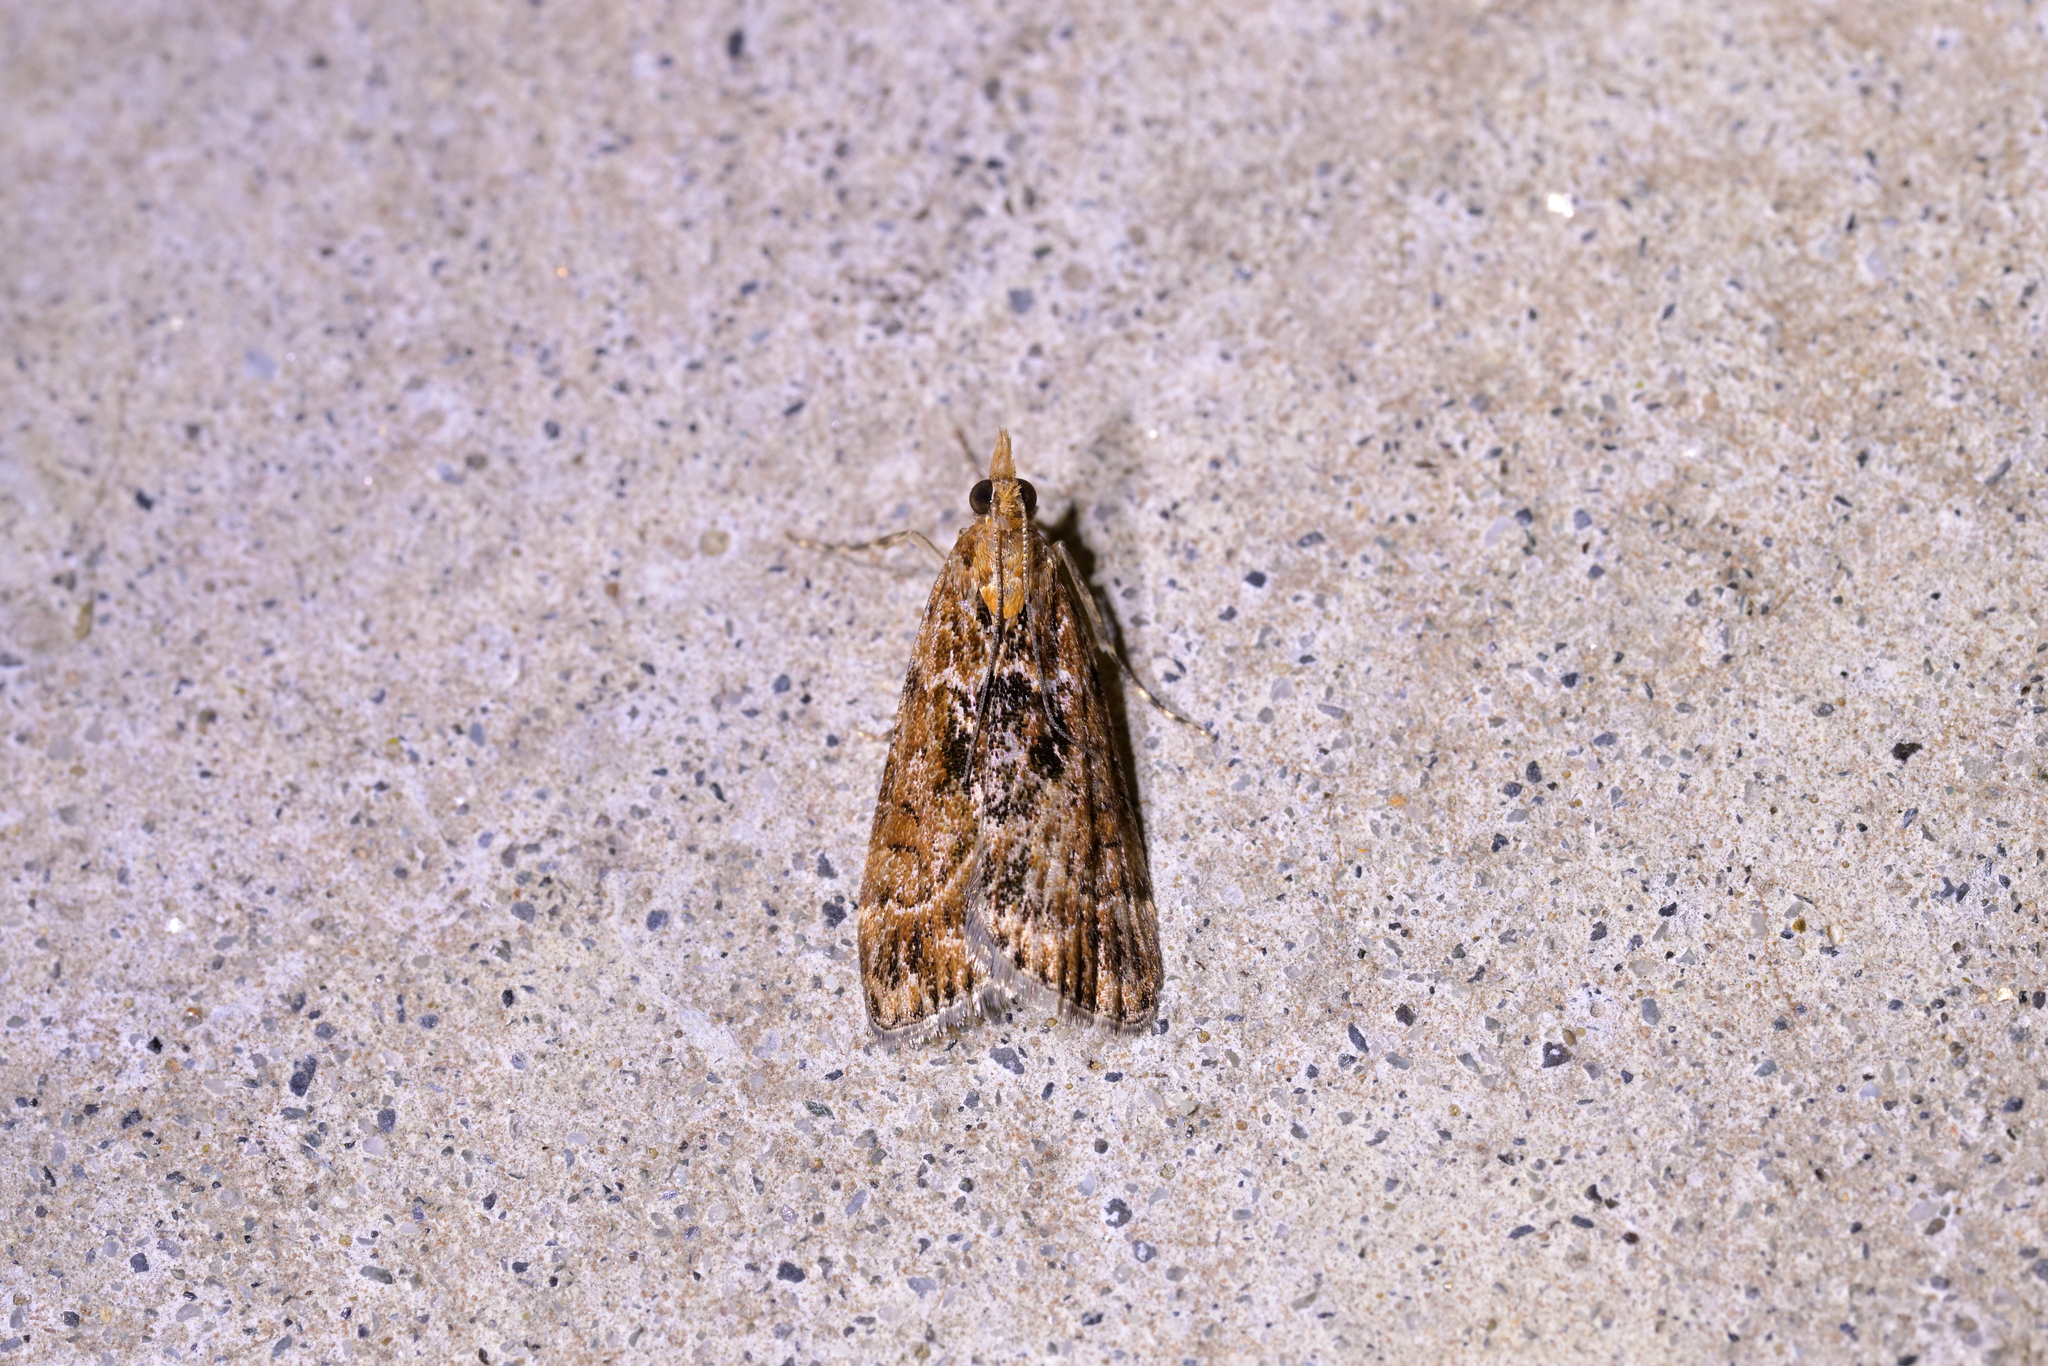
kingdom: Animalia
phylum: Arthropoda
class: Insecta
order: Lepidoptera
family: Crambidae
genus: Scoparia
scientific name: Scoparia animosa
